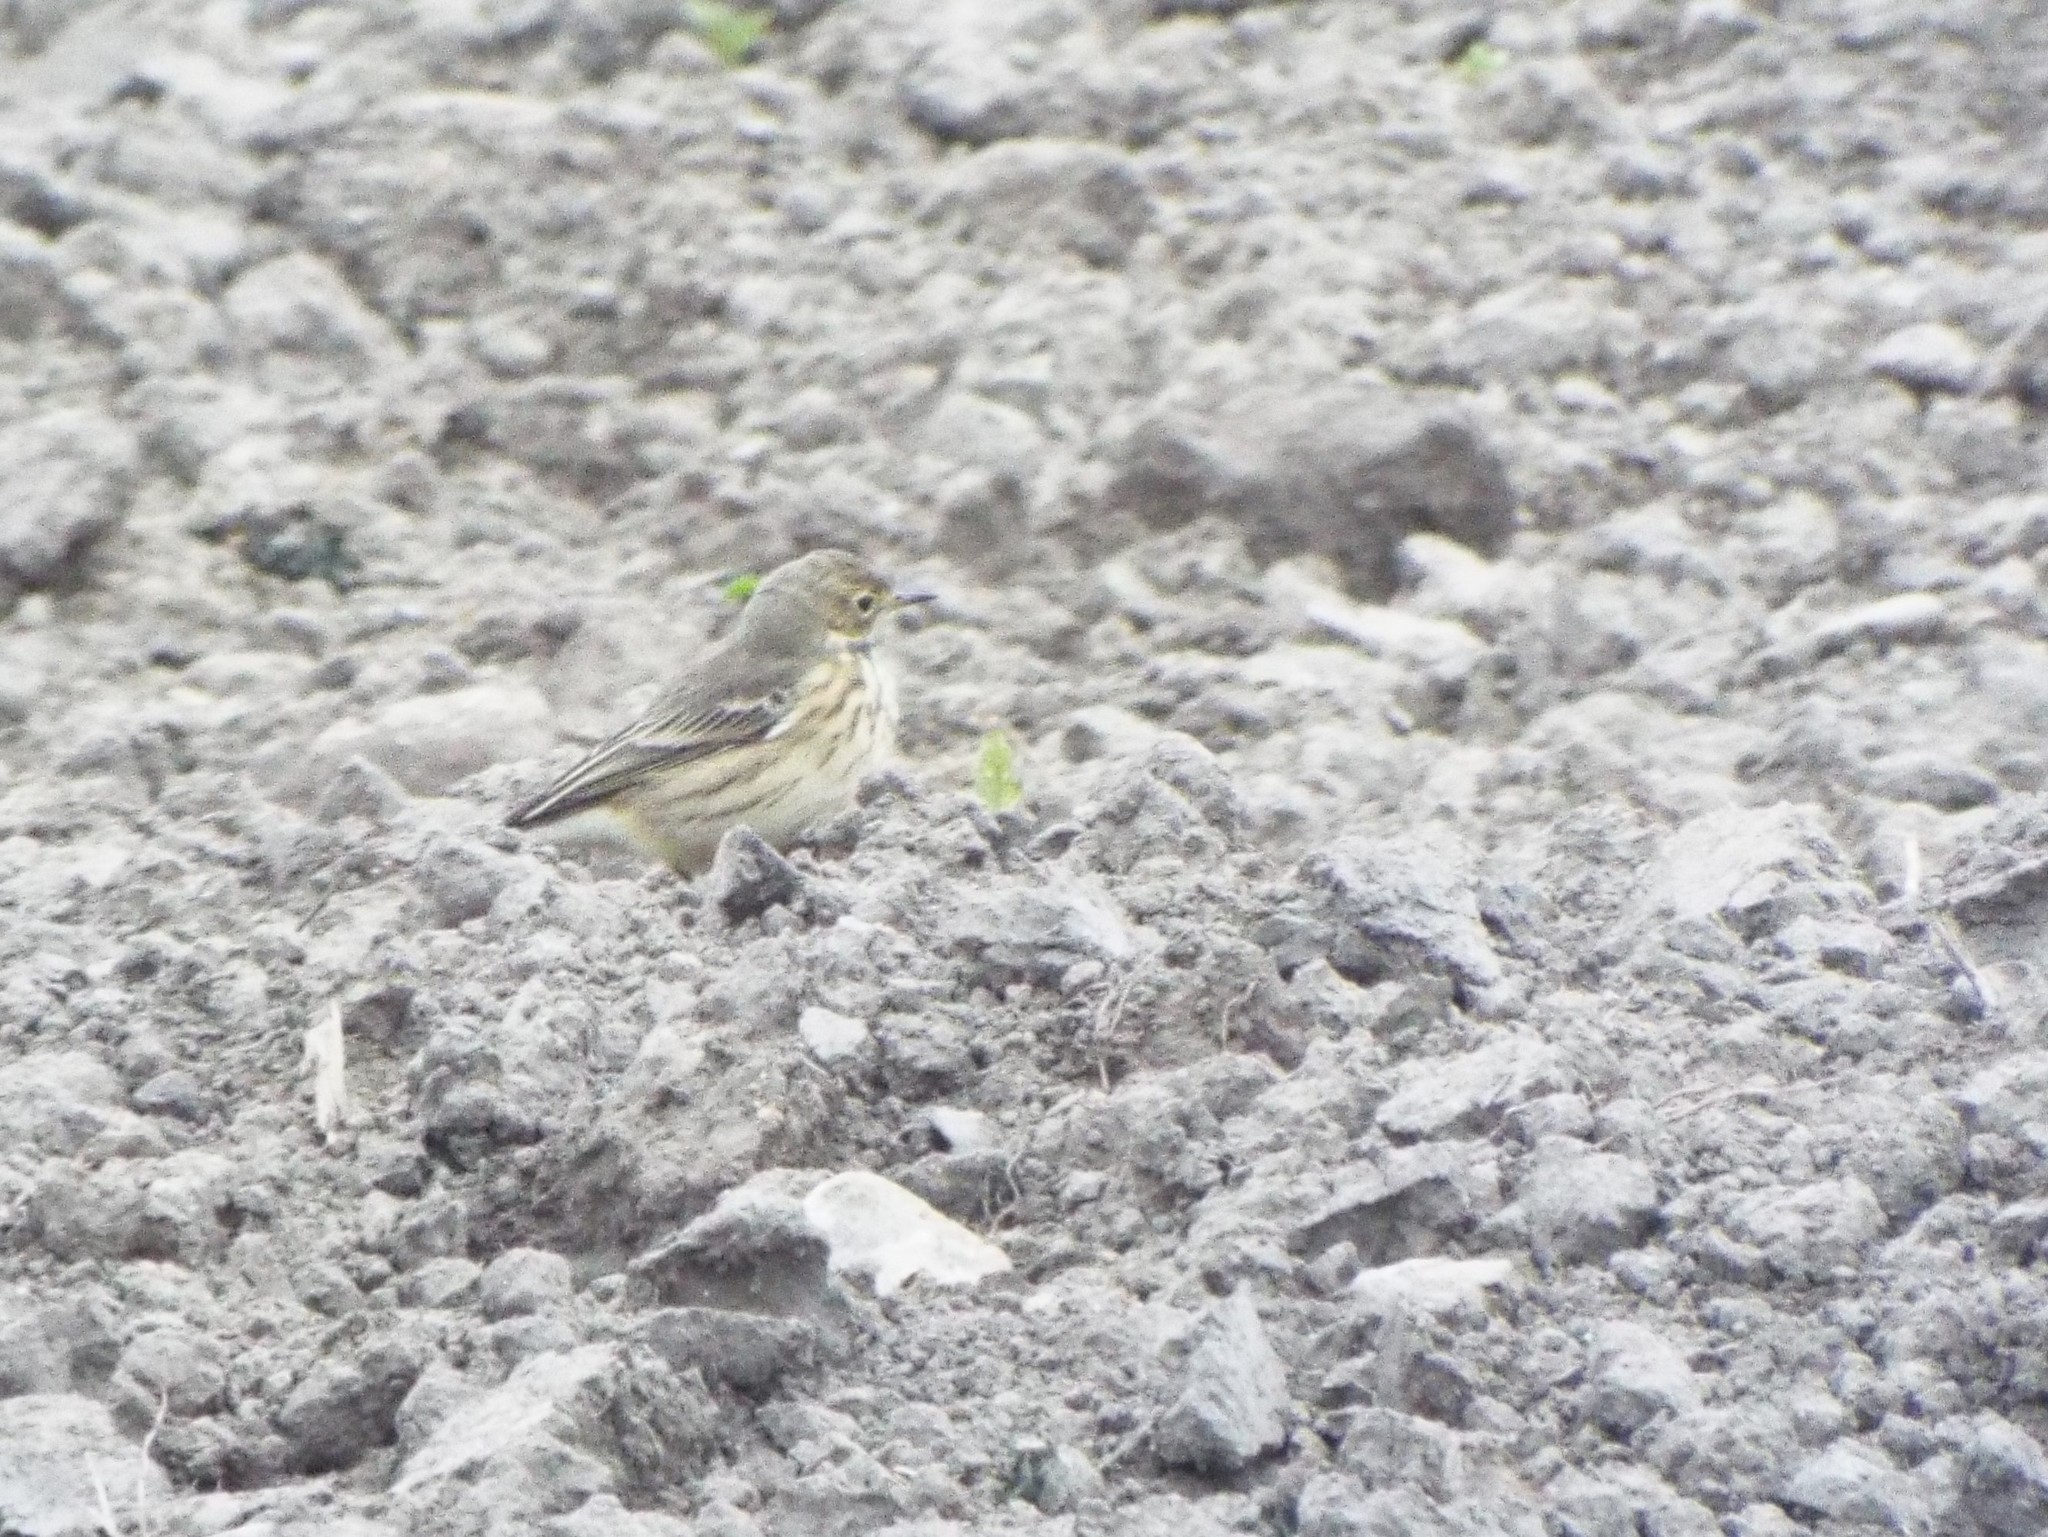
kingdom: Animalia
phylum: Chordata
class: Aves
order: Passeriformes
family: Motacillidae
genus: Anthus
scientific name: Anthus rubescens
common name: Buff-bellied pipit
